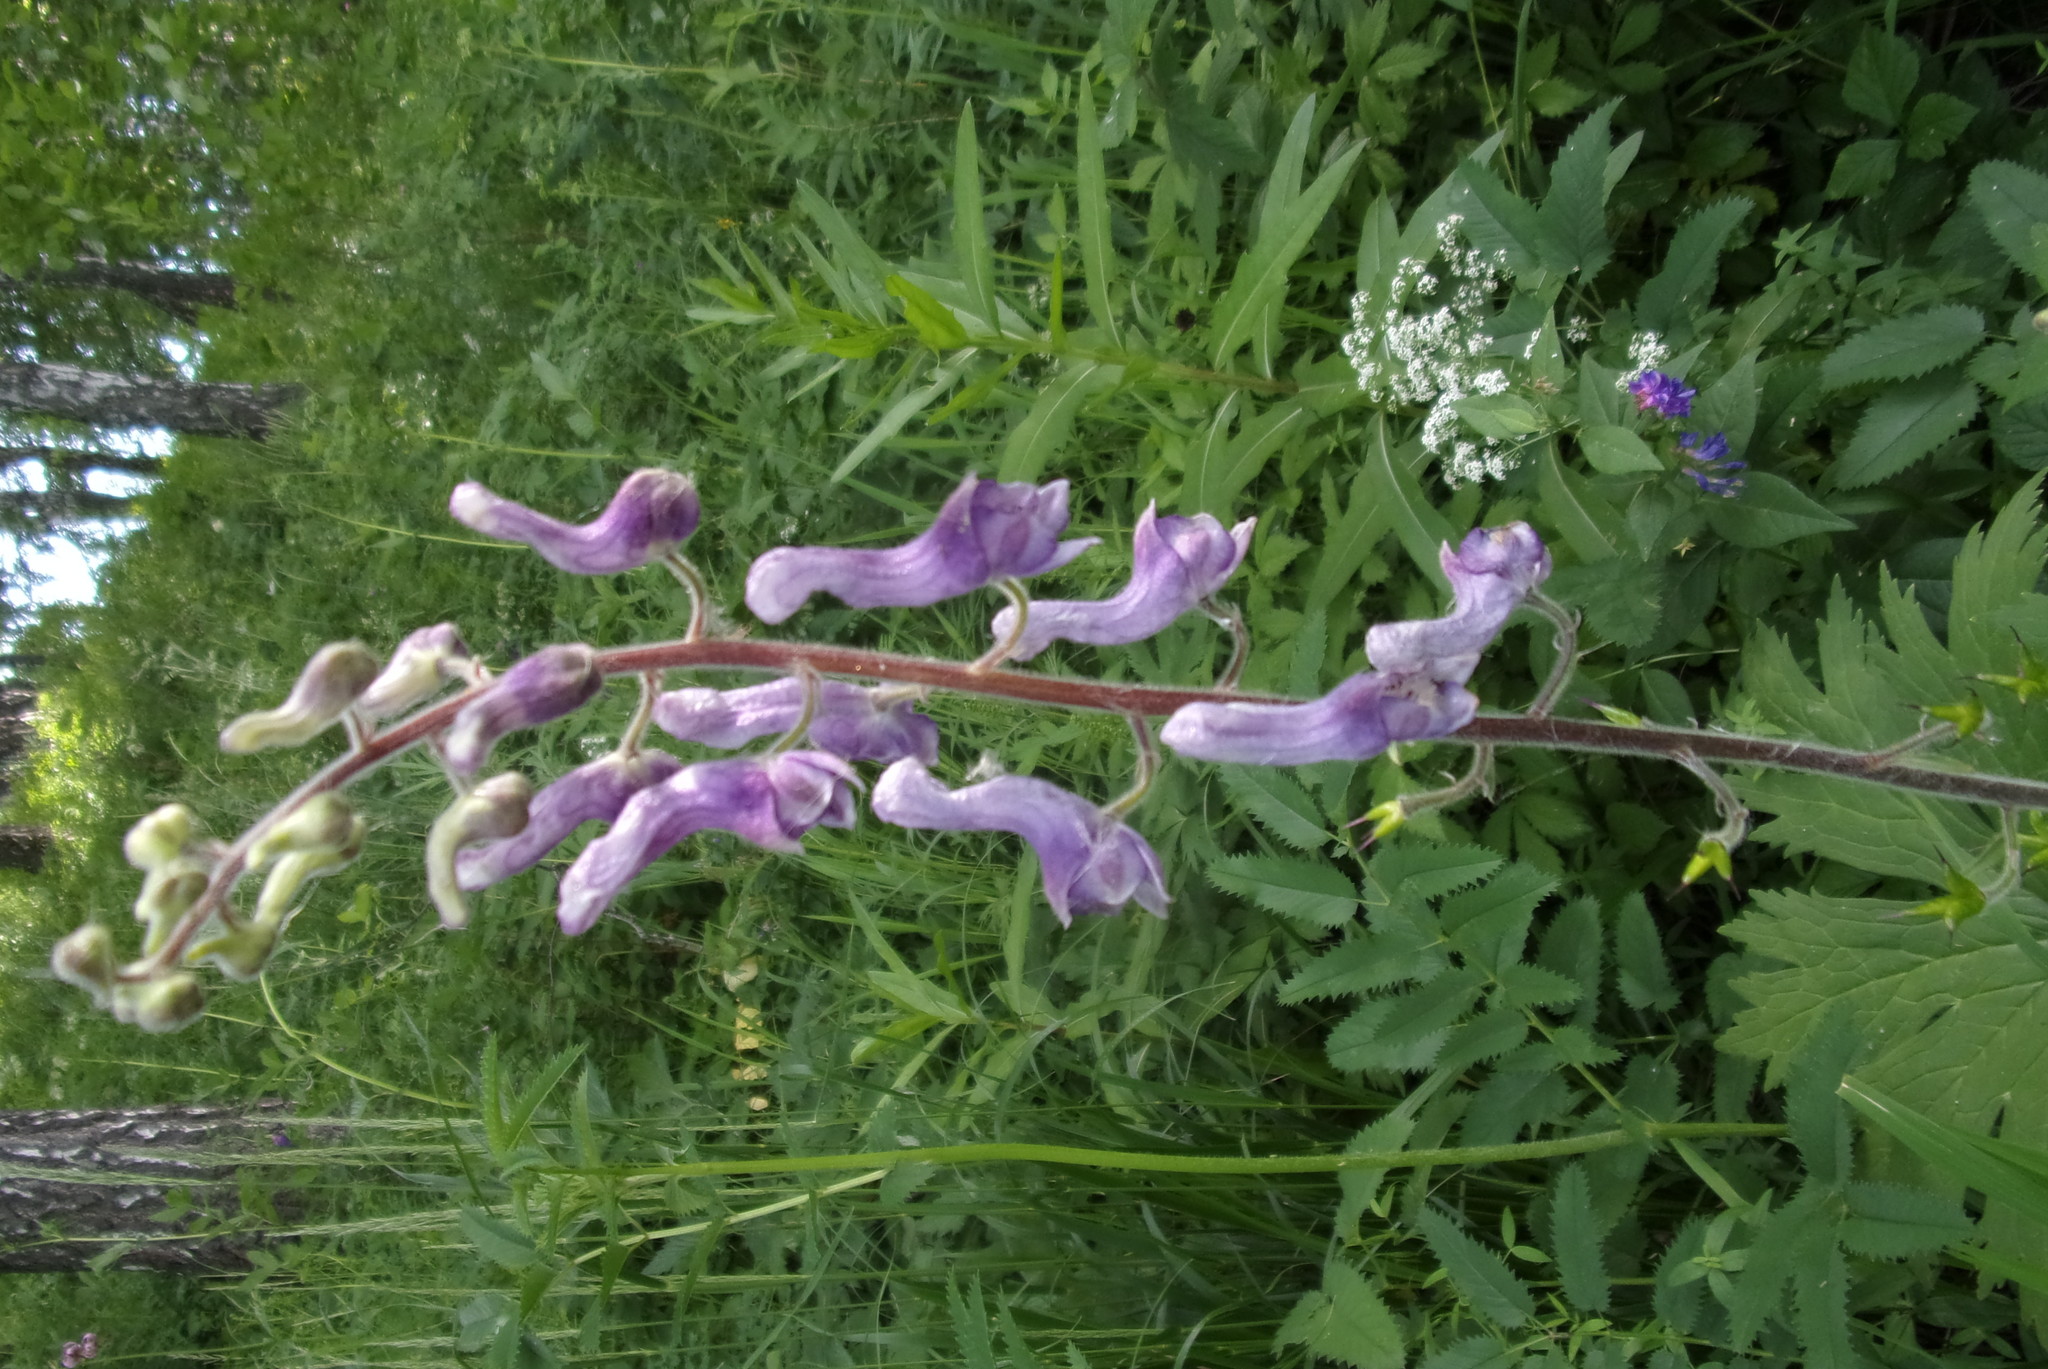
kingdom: Plantae
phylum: Tracheophyta
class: Magnoliopsida
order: Ranunculales
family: Ranunculaceae
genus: Aconitum
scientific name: Aconitum septentrionale
